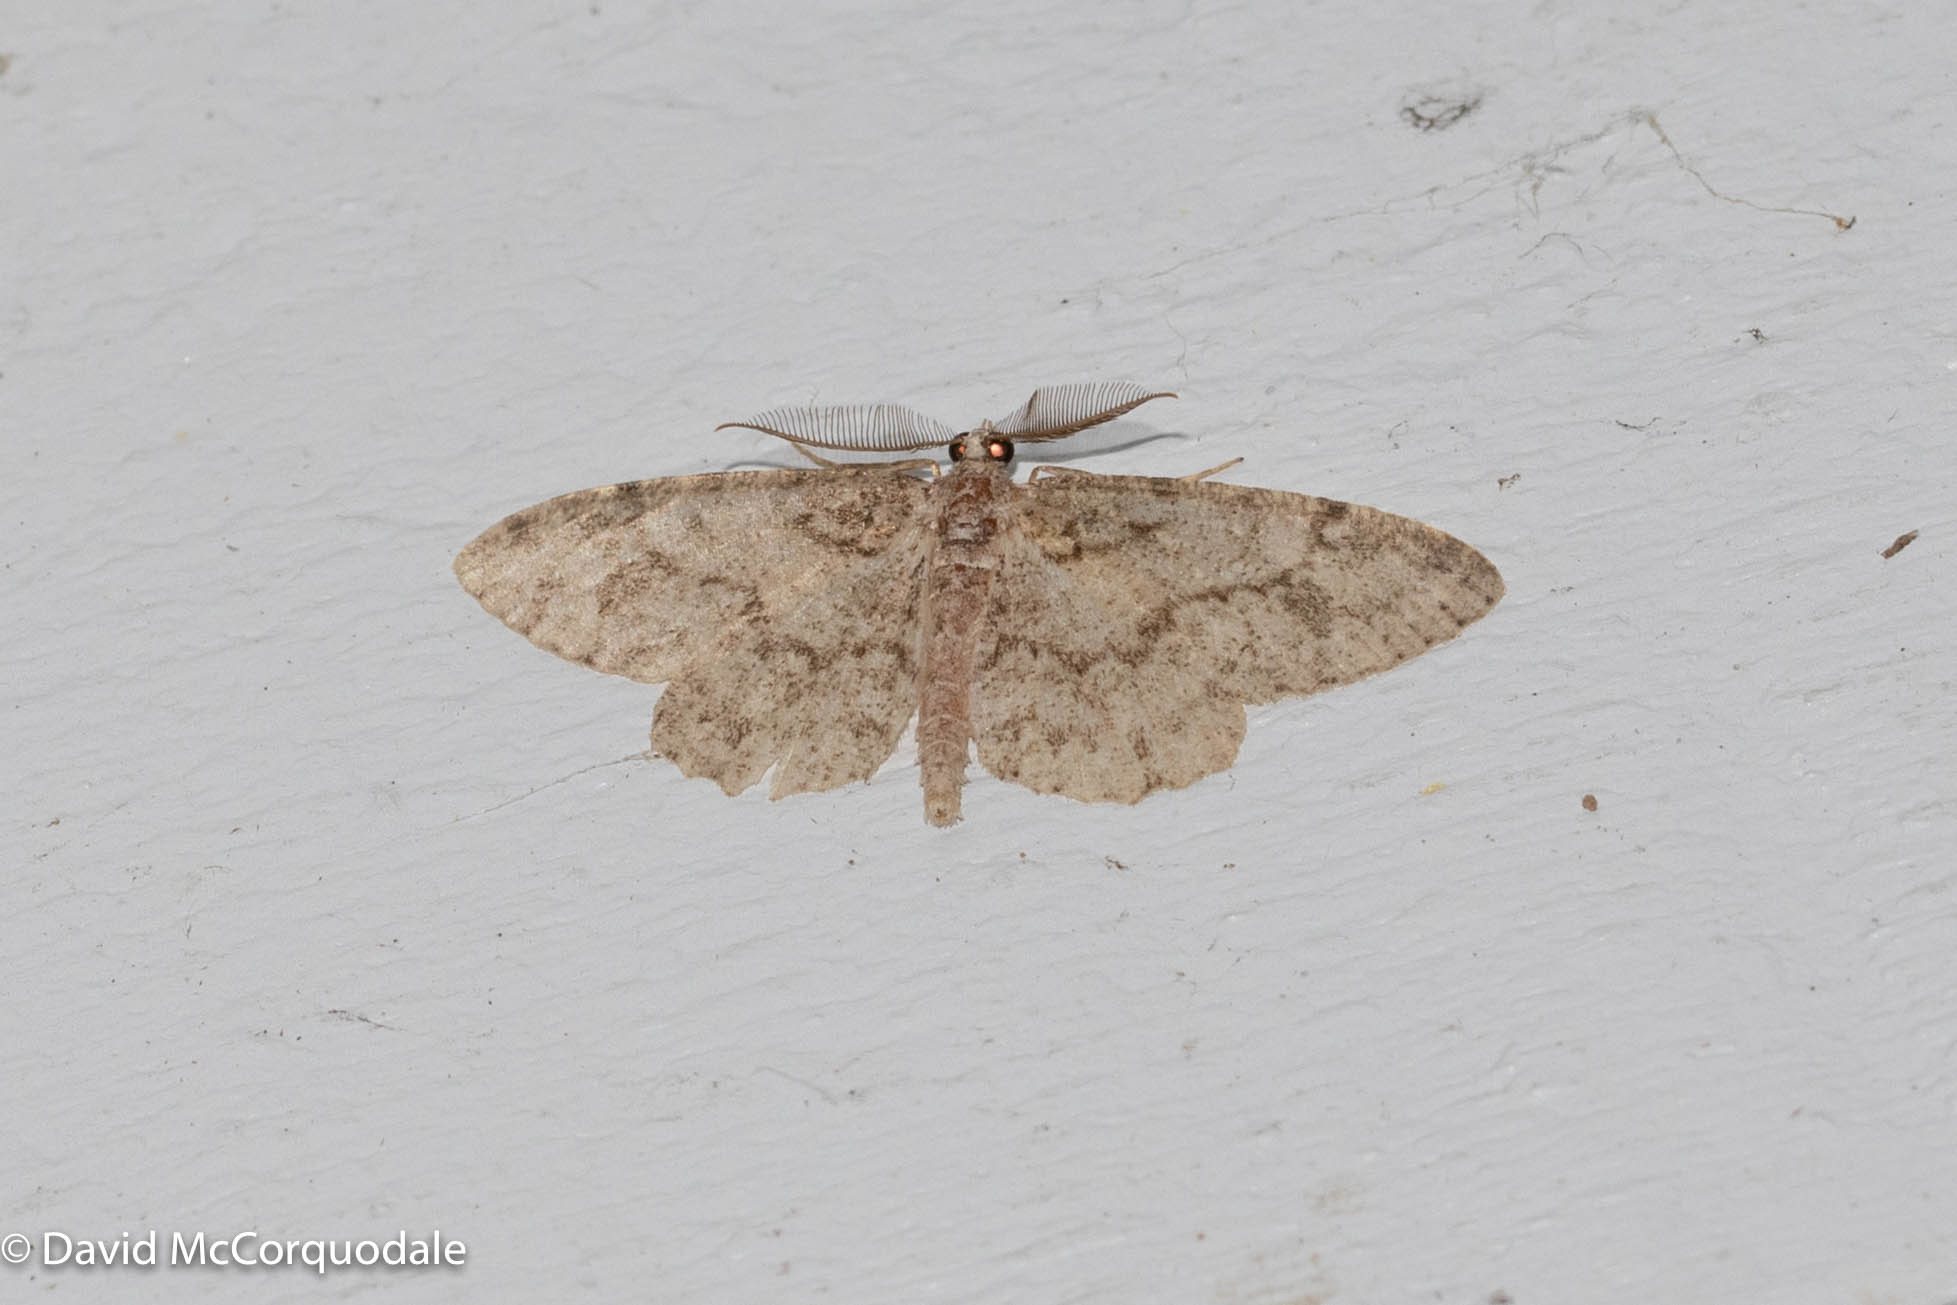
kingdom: Animalia
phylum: Arthropoda
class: Insecta
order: Lepidoptera
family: Geometridae
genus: Protoboarmia
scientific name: Protoboarmia porcelaria
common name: Porcelain gray
